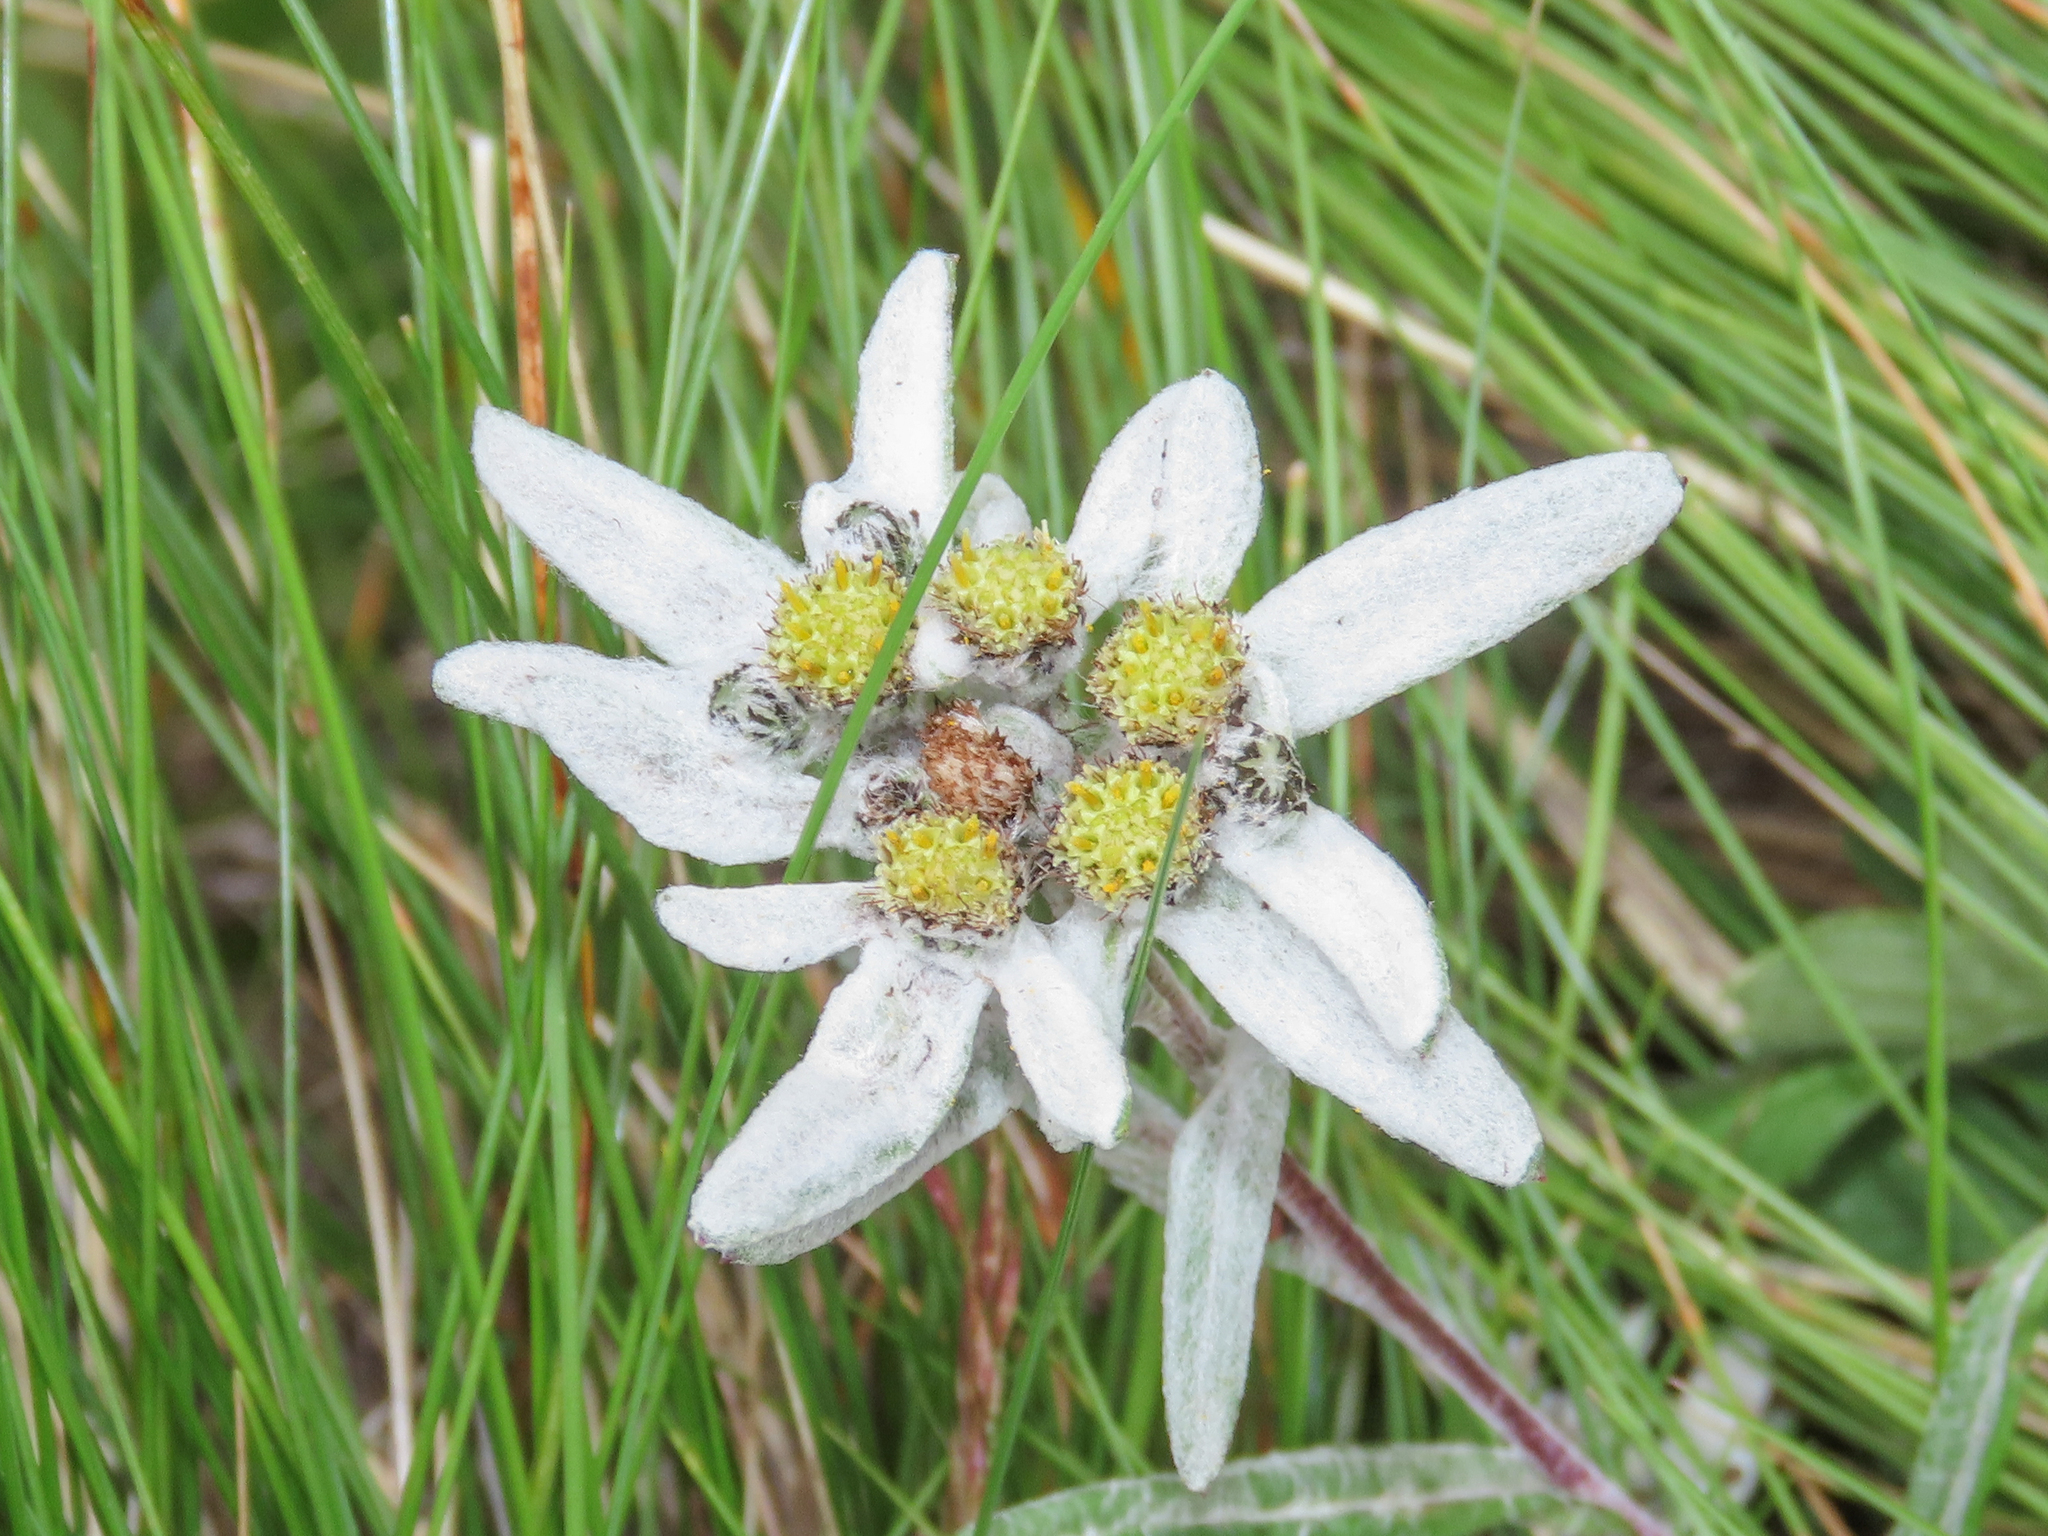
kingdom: Plantae
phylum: Tracheophyta
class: Magnoliopsida
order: Asterales
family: Asteraceae
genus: Leontopodium
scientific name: Leontopodium nivale
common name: Edelweiss
